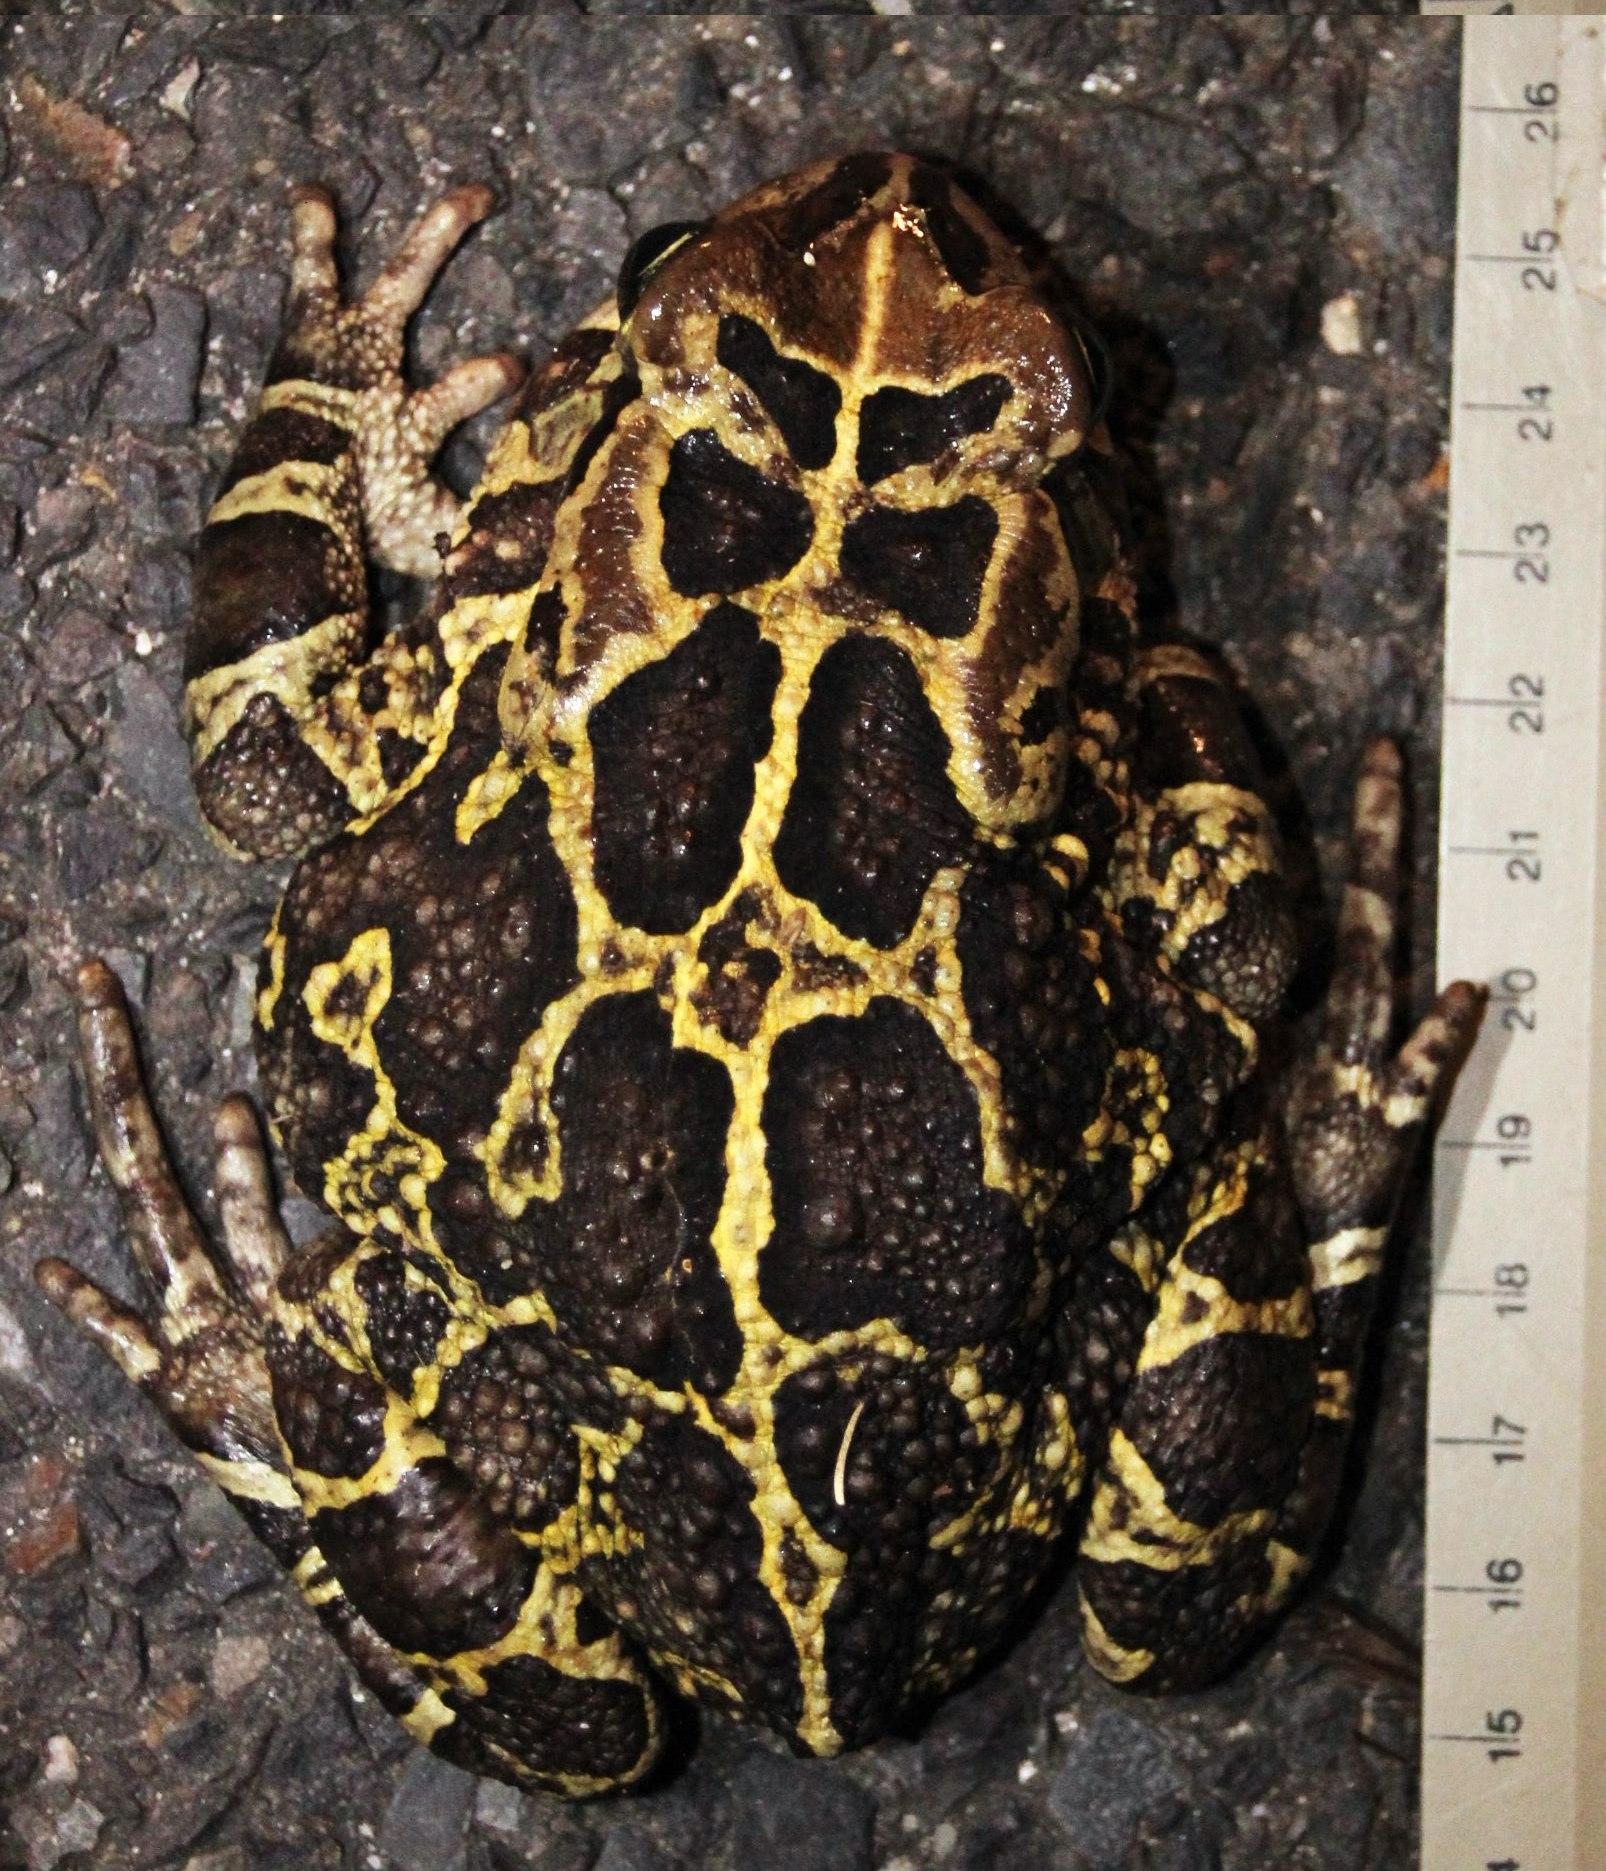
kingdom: Animalia
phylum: Chordata
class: Amphibia
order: Anura
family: Bufonidae
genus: Sclerophrys
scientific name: Sclerophrys pantherina
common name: Panther toad
